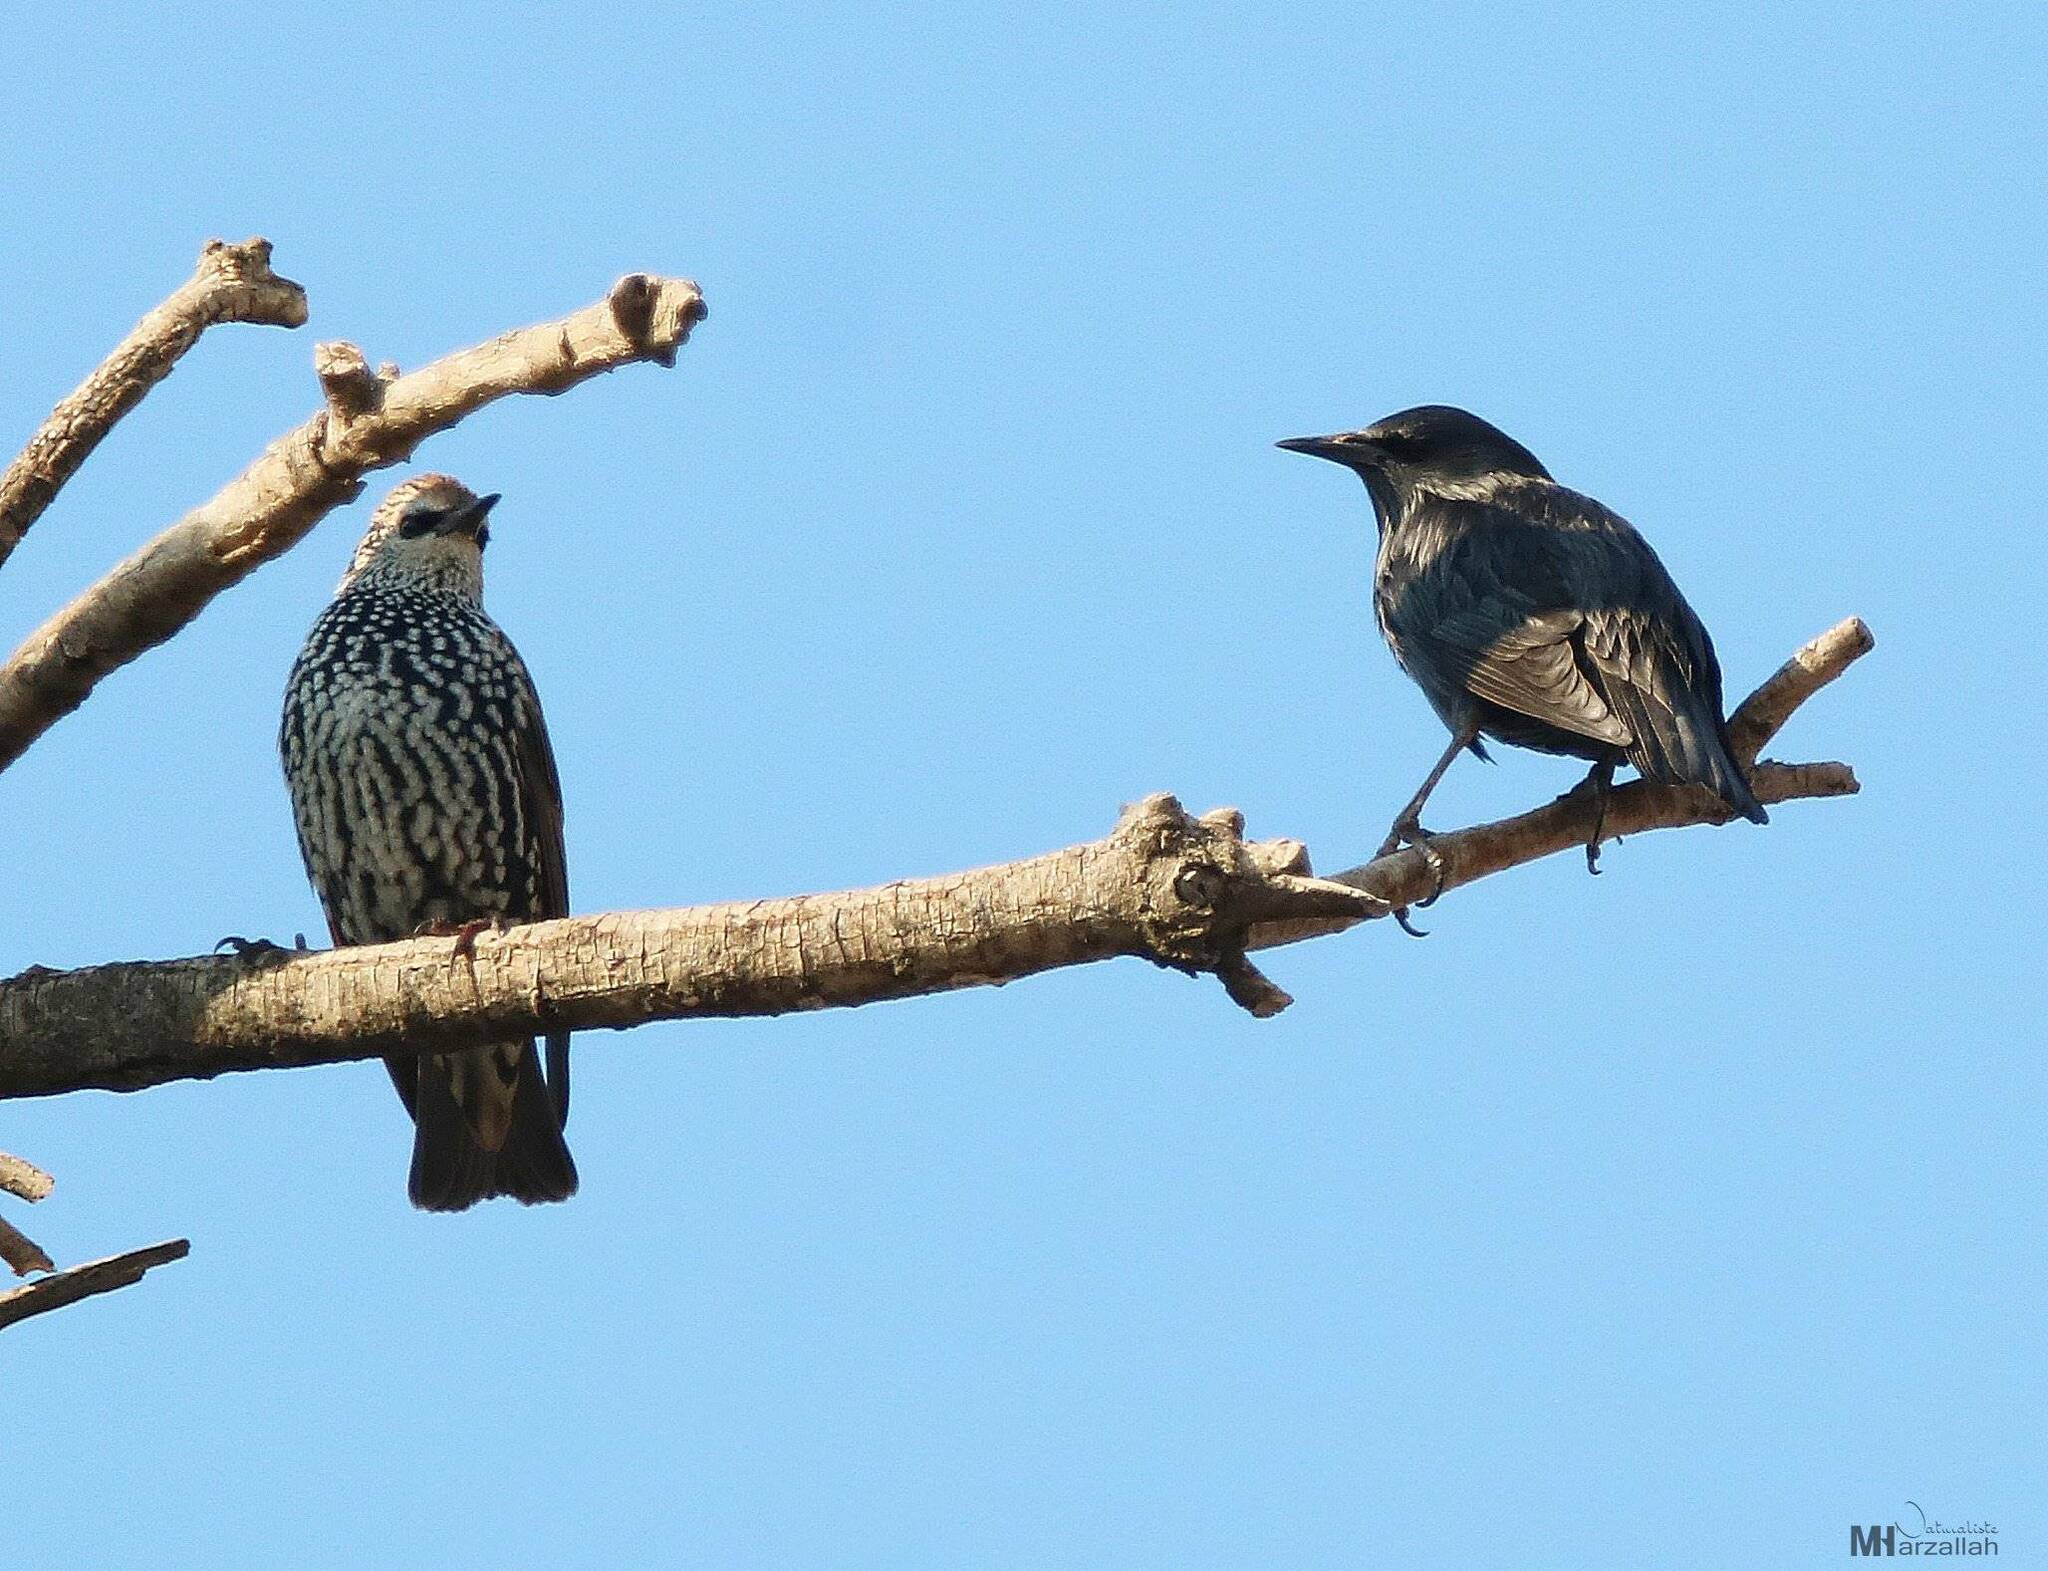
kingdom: Animalia
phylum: Chordata
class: Aves
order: Passeriformes
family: Sturnidae
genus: Sturnus
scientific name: Sturnus unicolor
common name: Spotless starling
